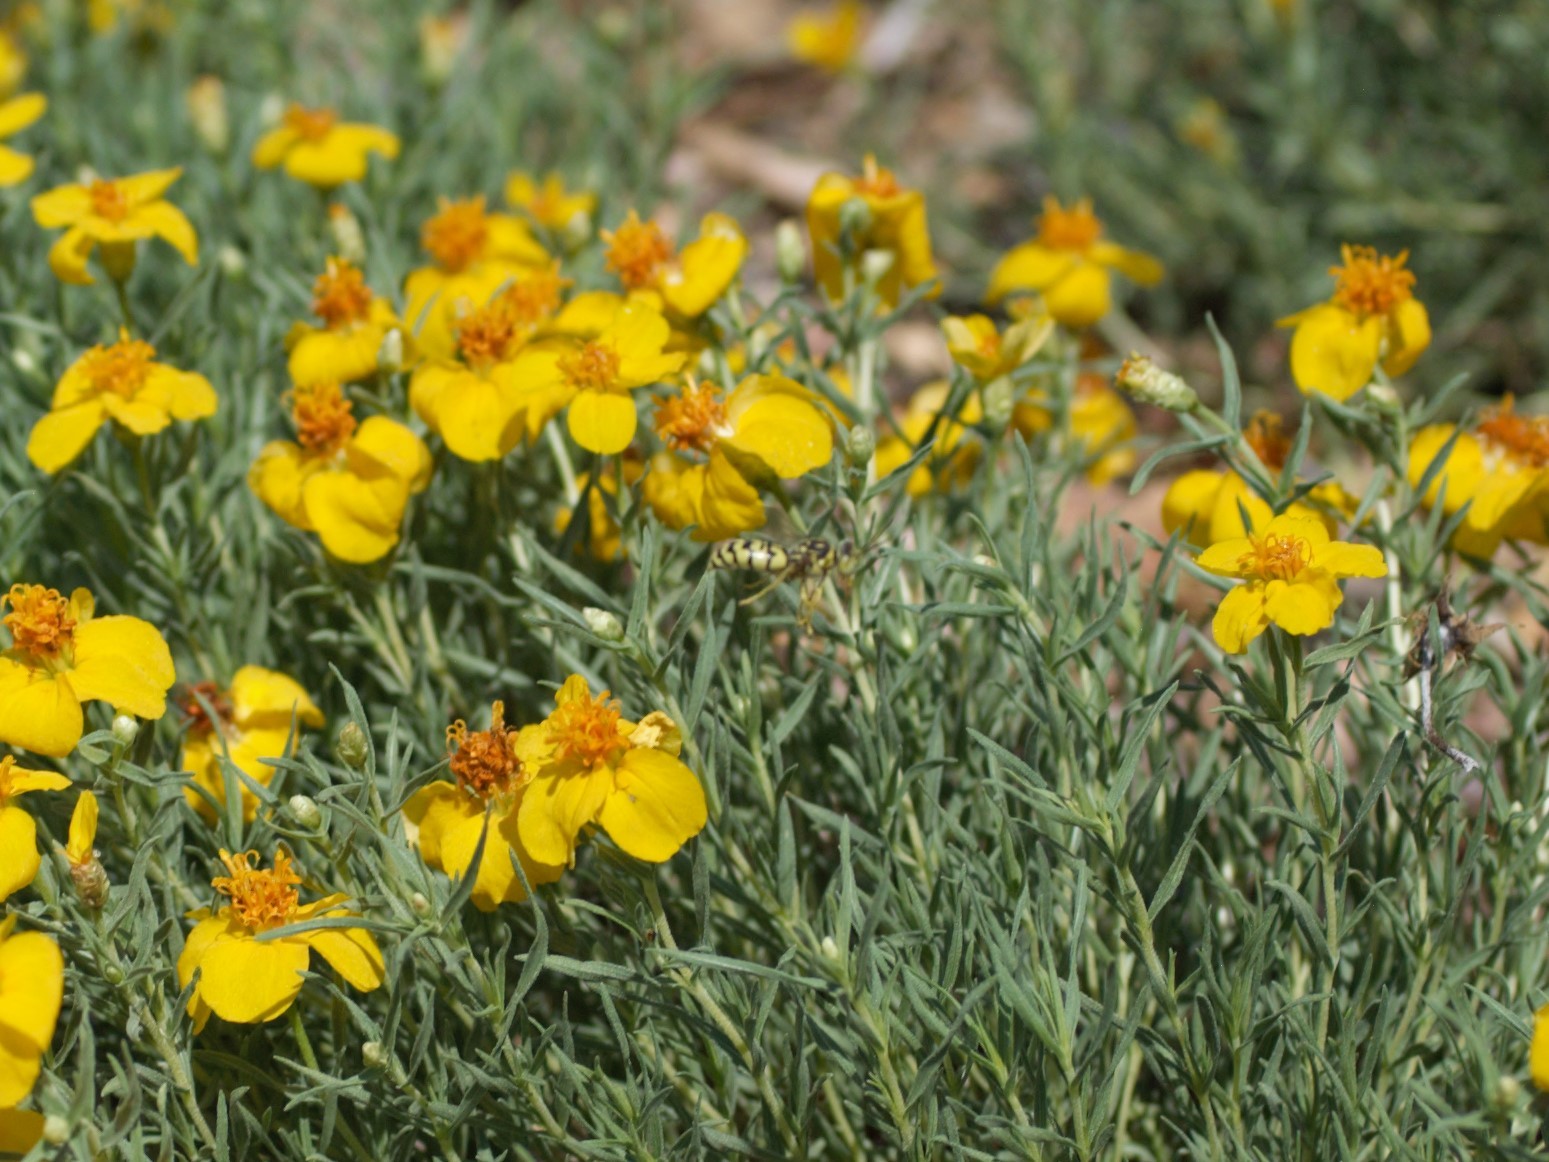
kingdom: Animalia
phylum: Arthropoda
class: Insecta
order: Hymenoptera
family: Crabronidae
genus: Steniolia
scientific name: Steniolia
